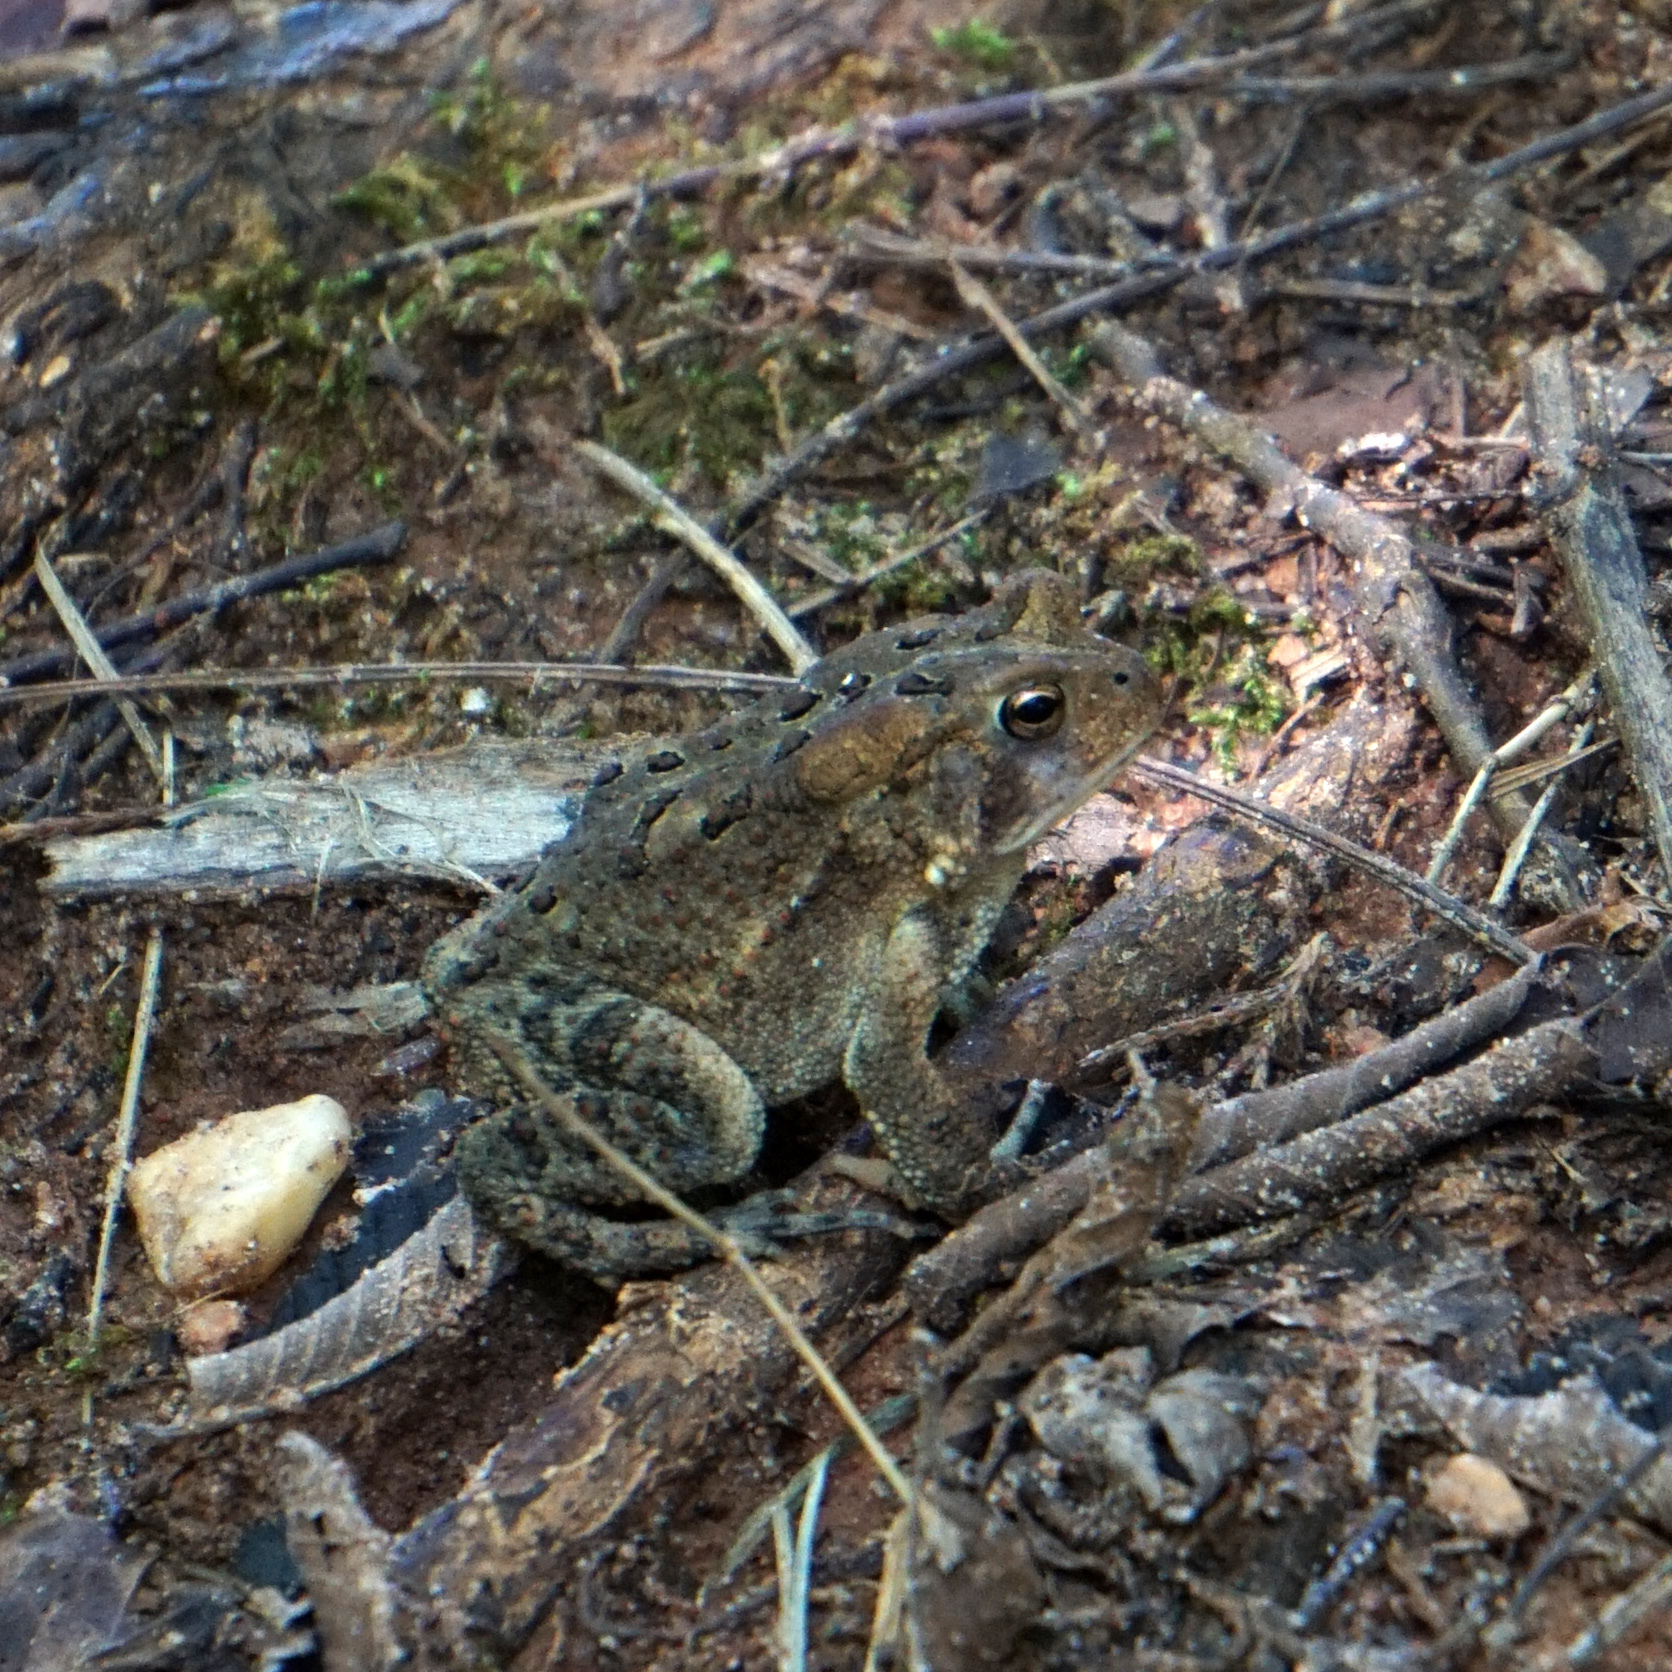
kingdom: Animalia
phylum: Chordata
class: Amphibia
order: Anura
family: Bufonidae
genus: Anaxyrus
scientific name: Anaxyrus americanus
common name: American toad
